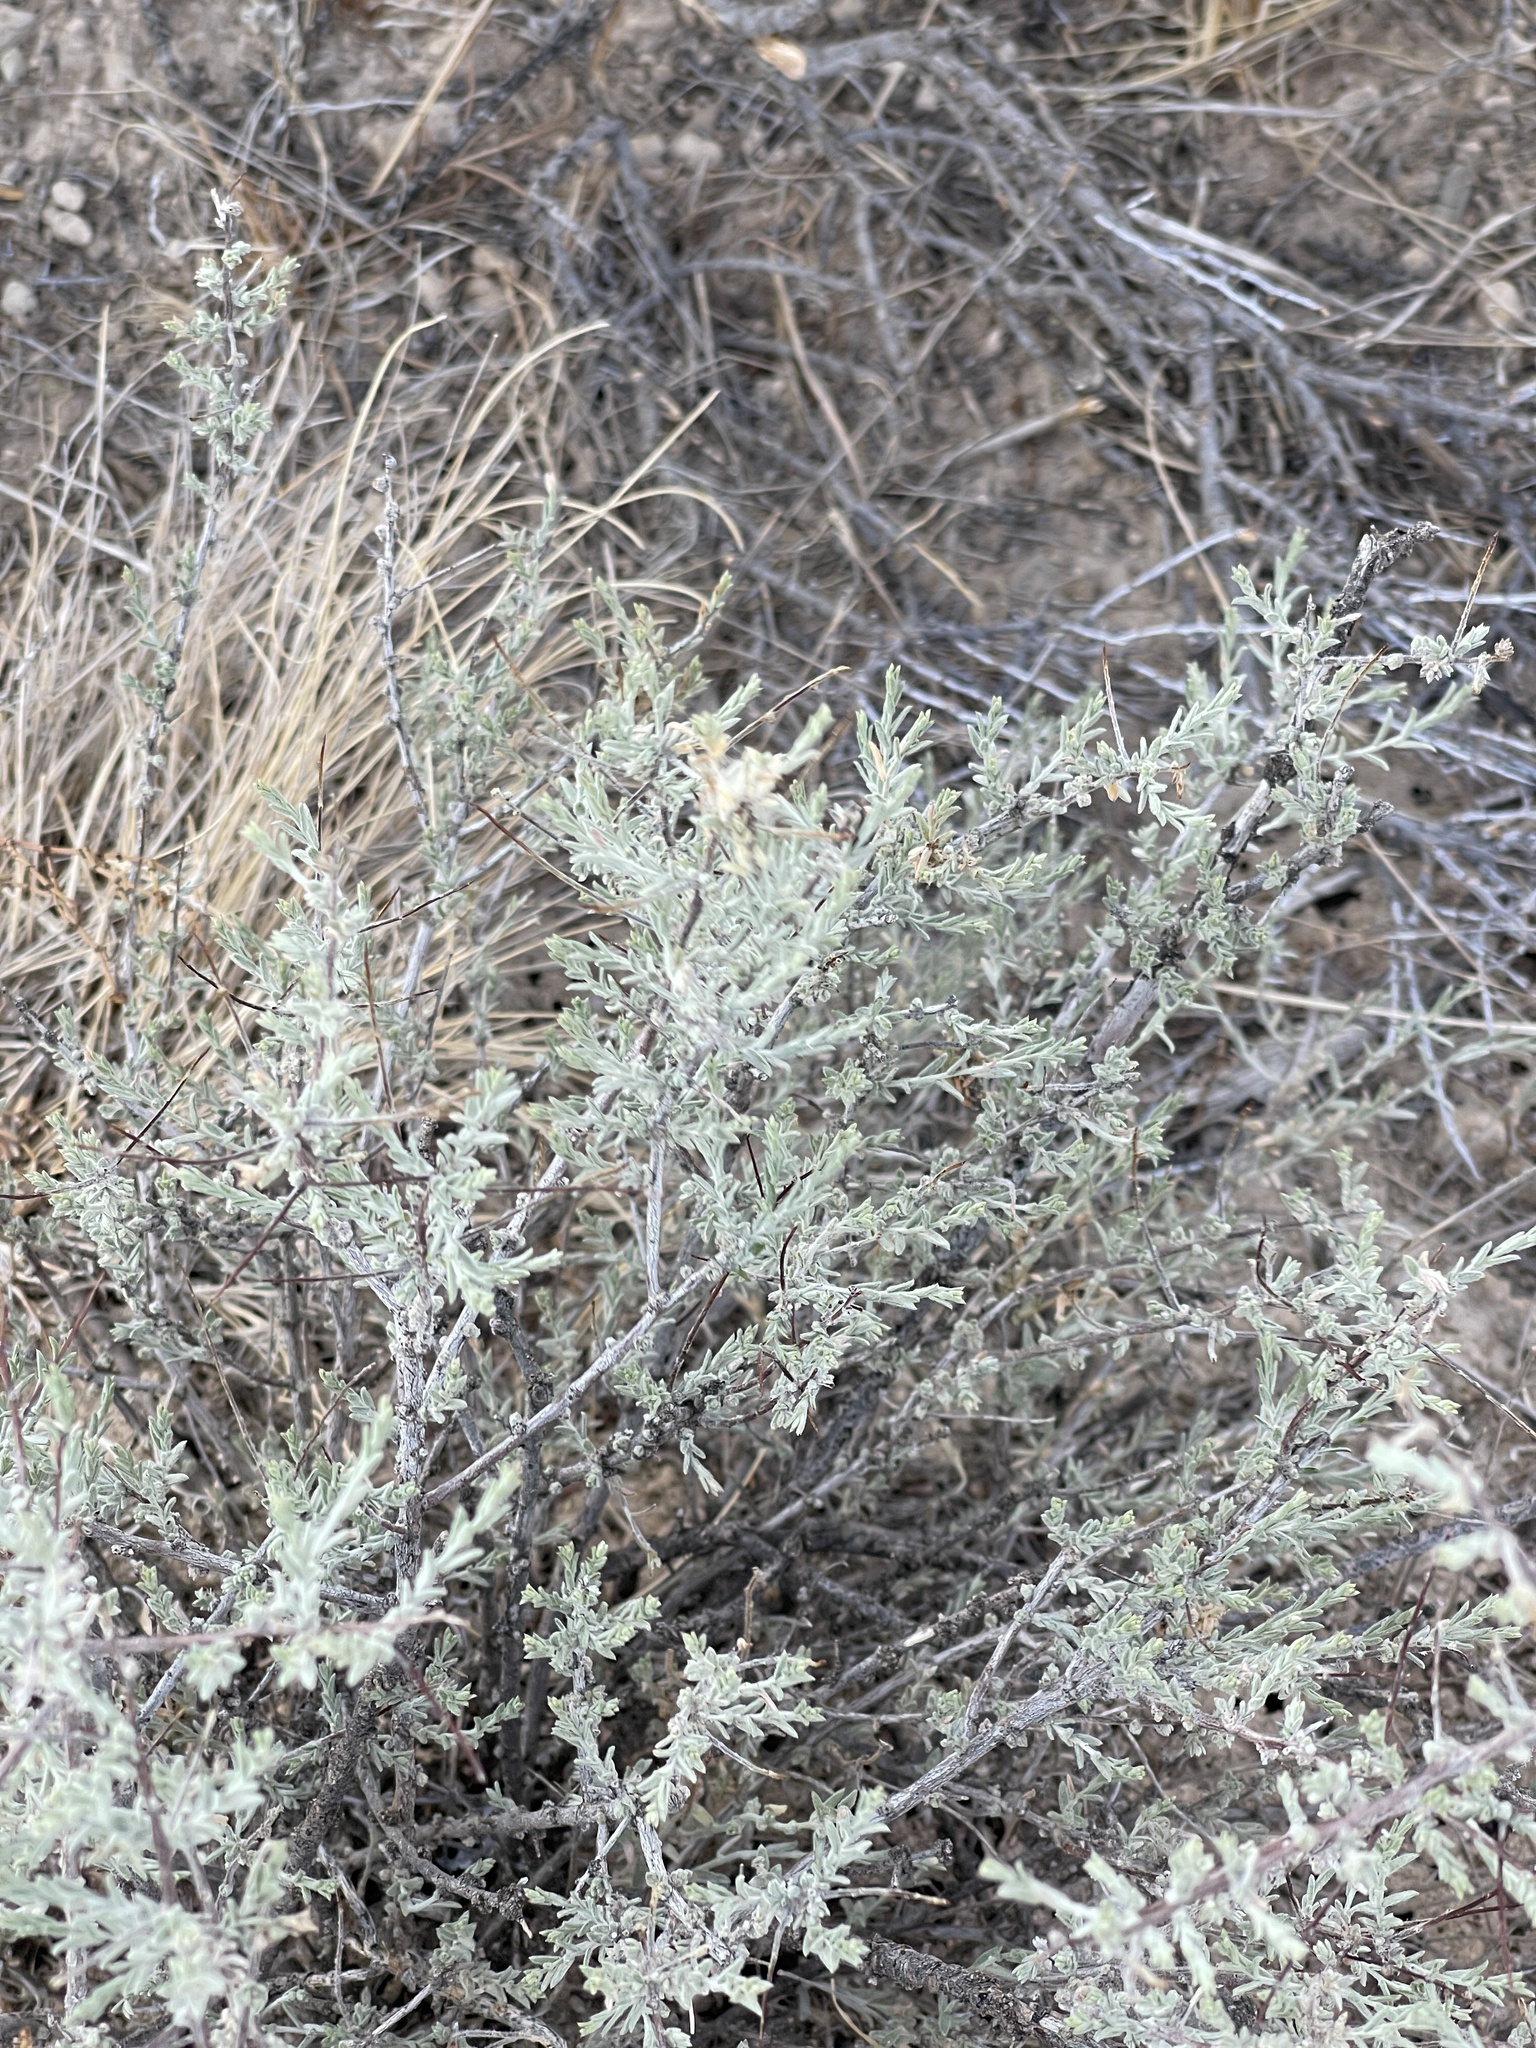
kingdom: Plantae
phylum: Tracheophyta
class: Magnoliopsida
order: Caryophyllales
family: Amaranthaceae
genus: Atriplex
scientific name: Atriplex canescens
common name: Four-wing saltbush
